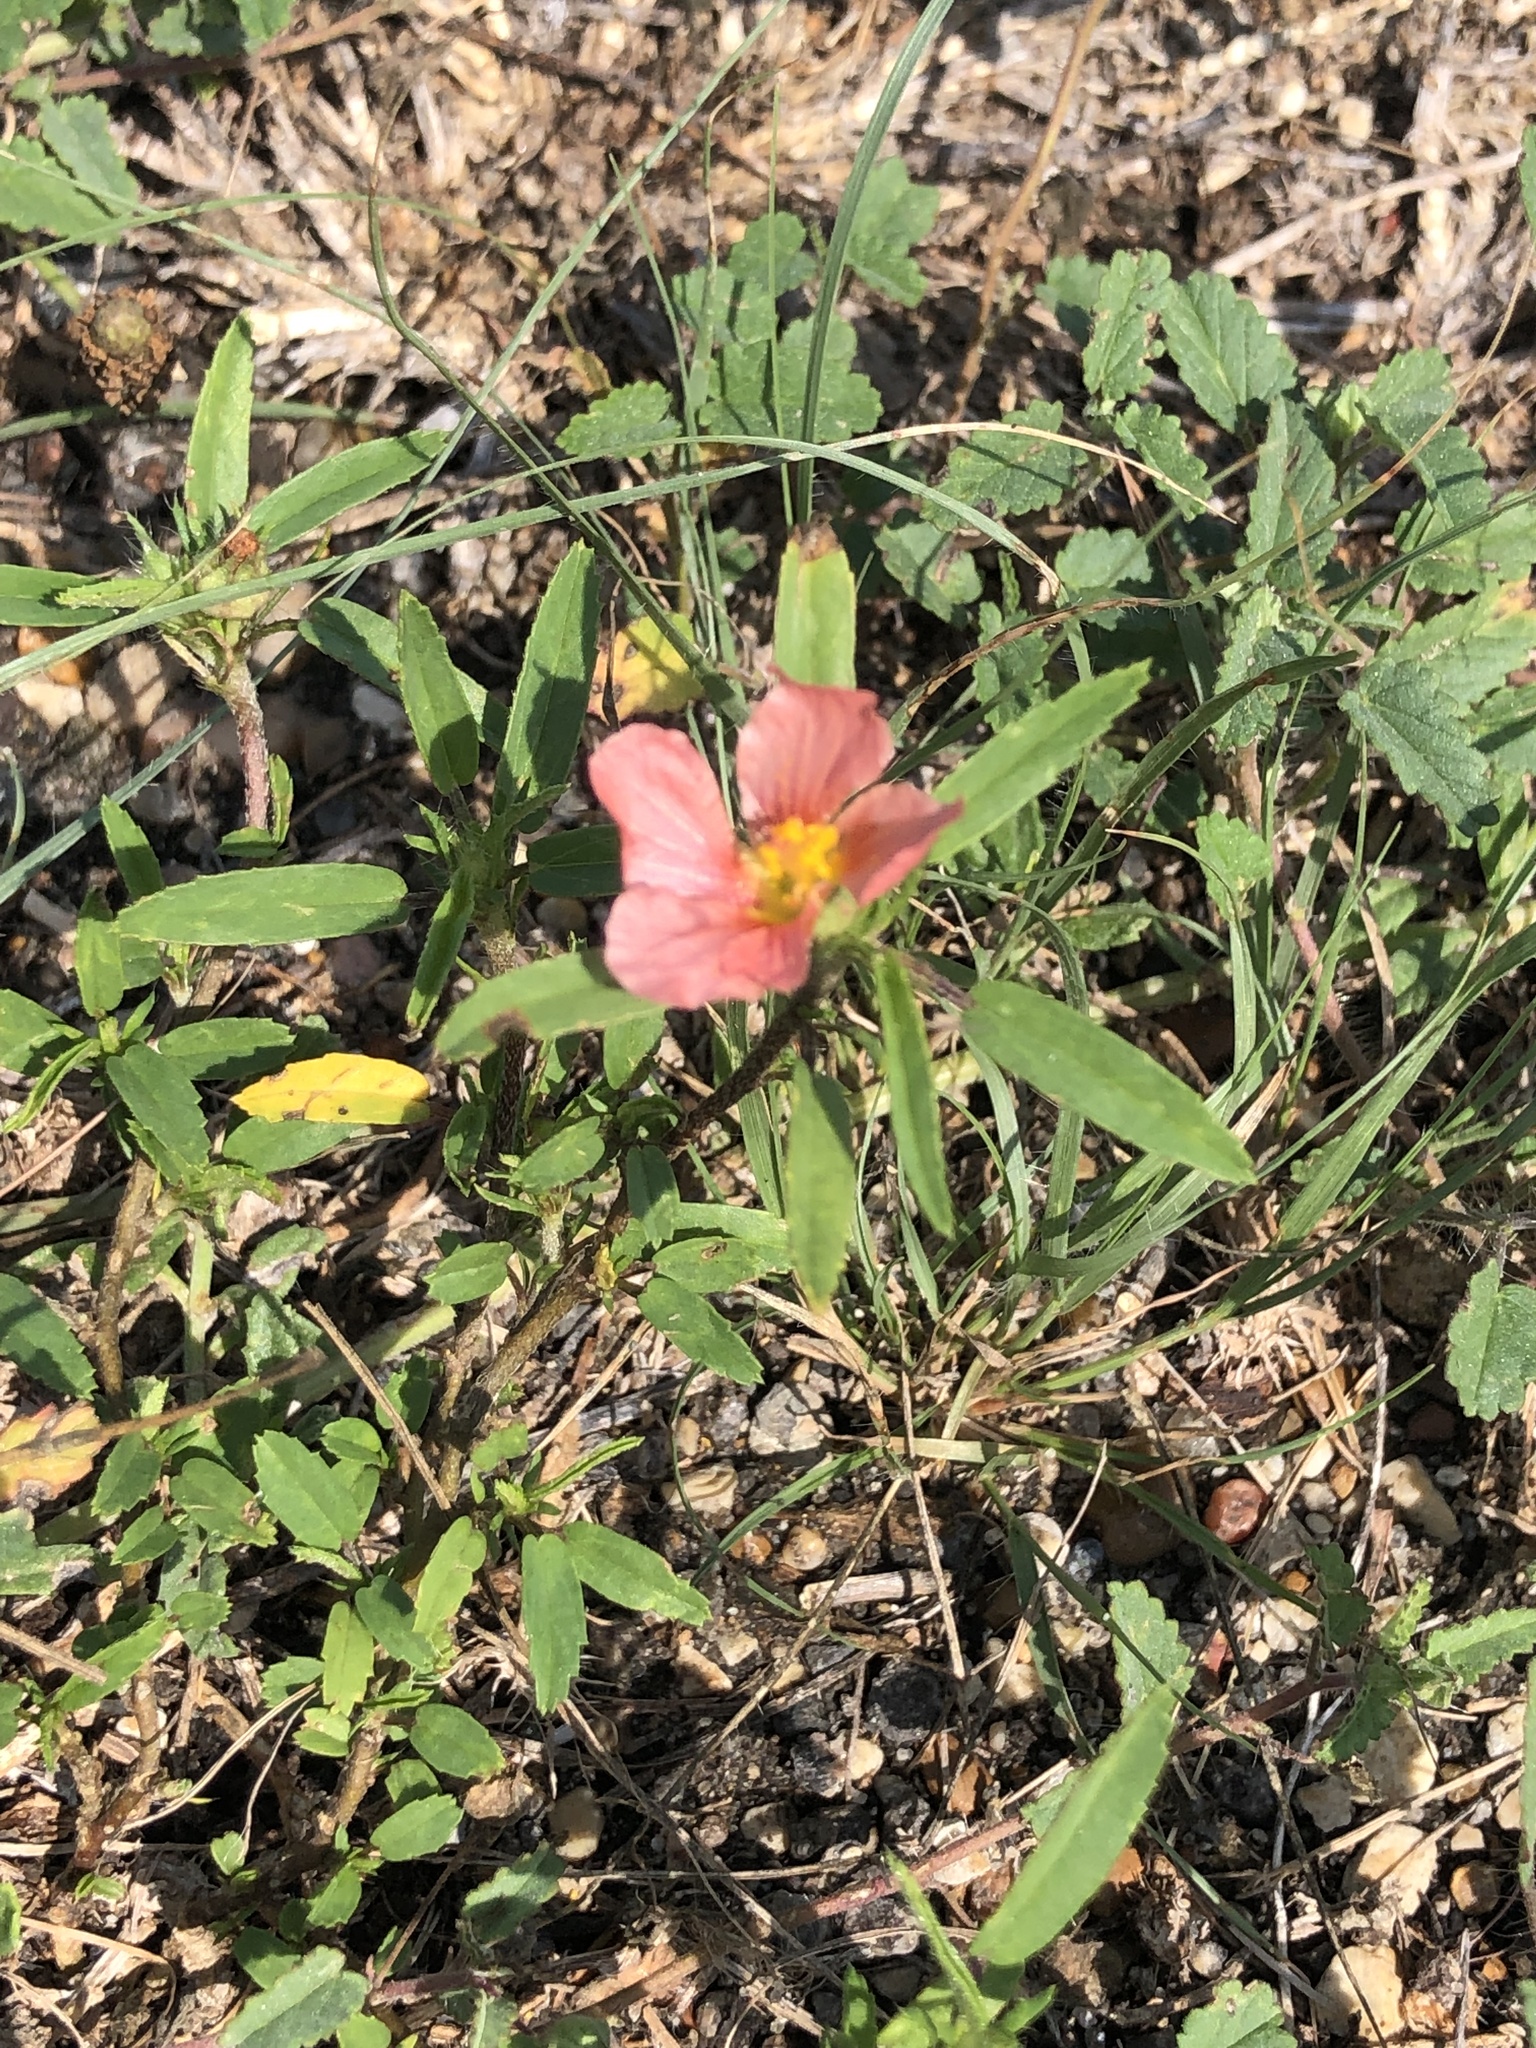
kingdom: Plantae
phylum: Tracheophyta
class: Magnoliopsida
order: Malvales
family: Malvaceae
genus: Sida
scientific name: Sida ciliaris
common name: Bracted fanpetals
